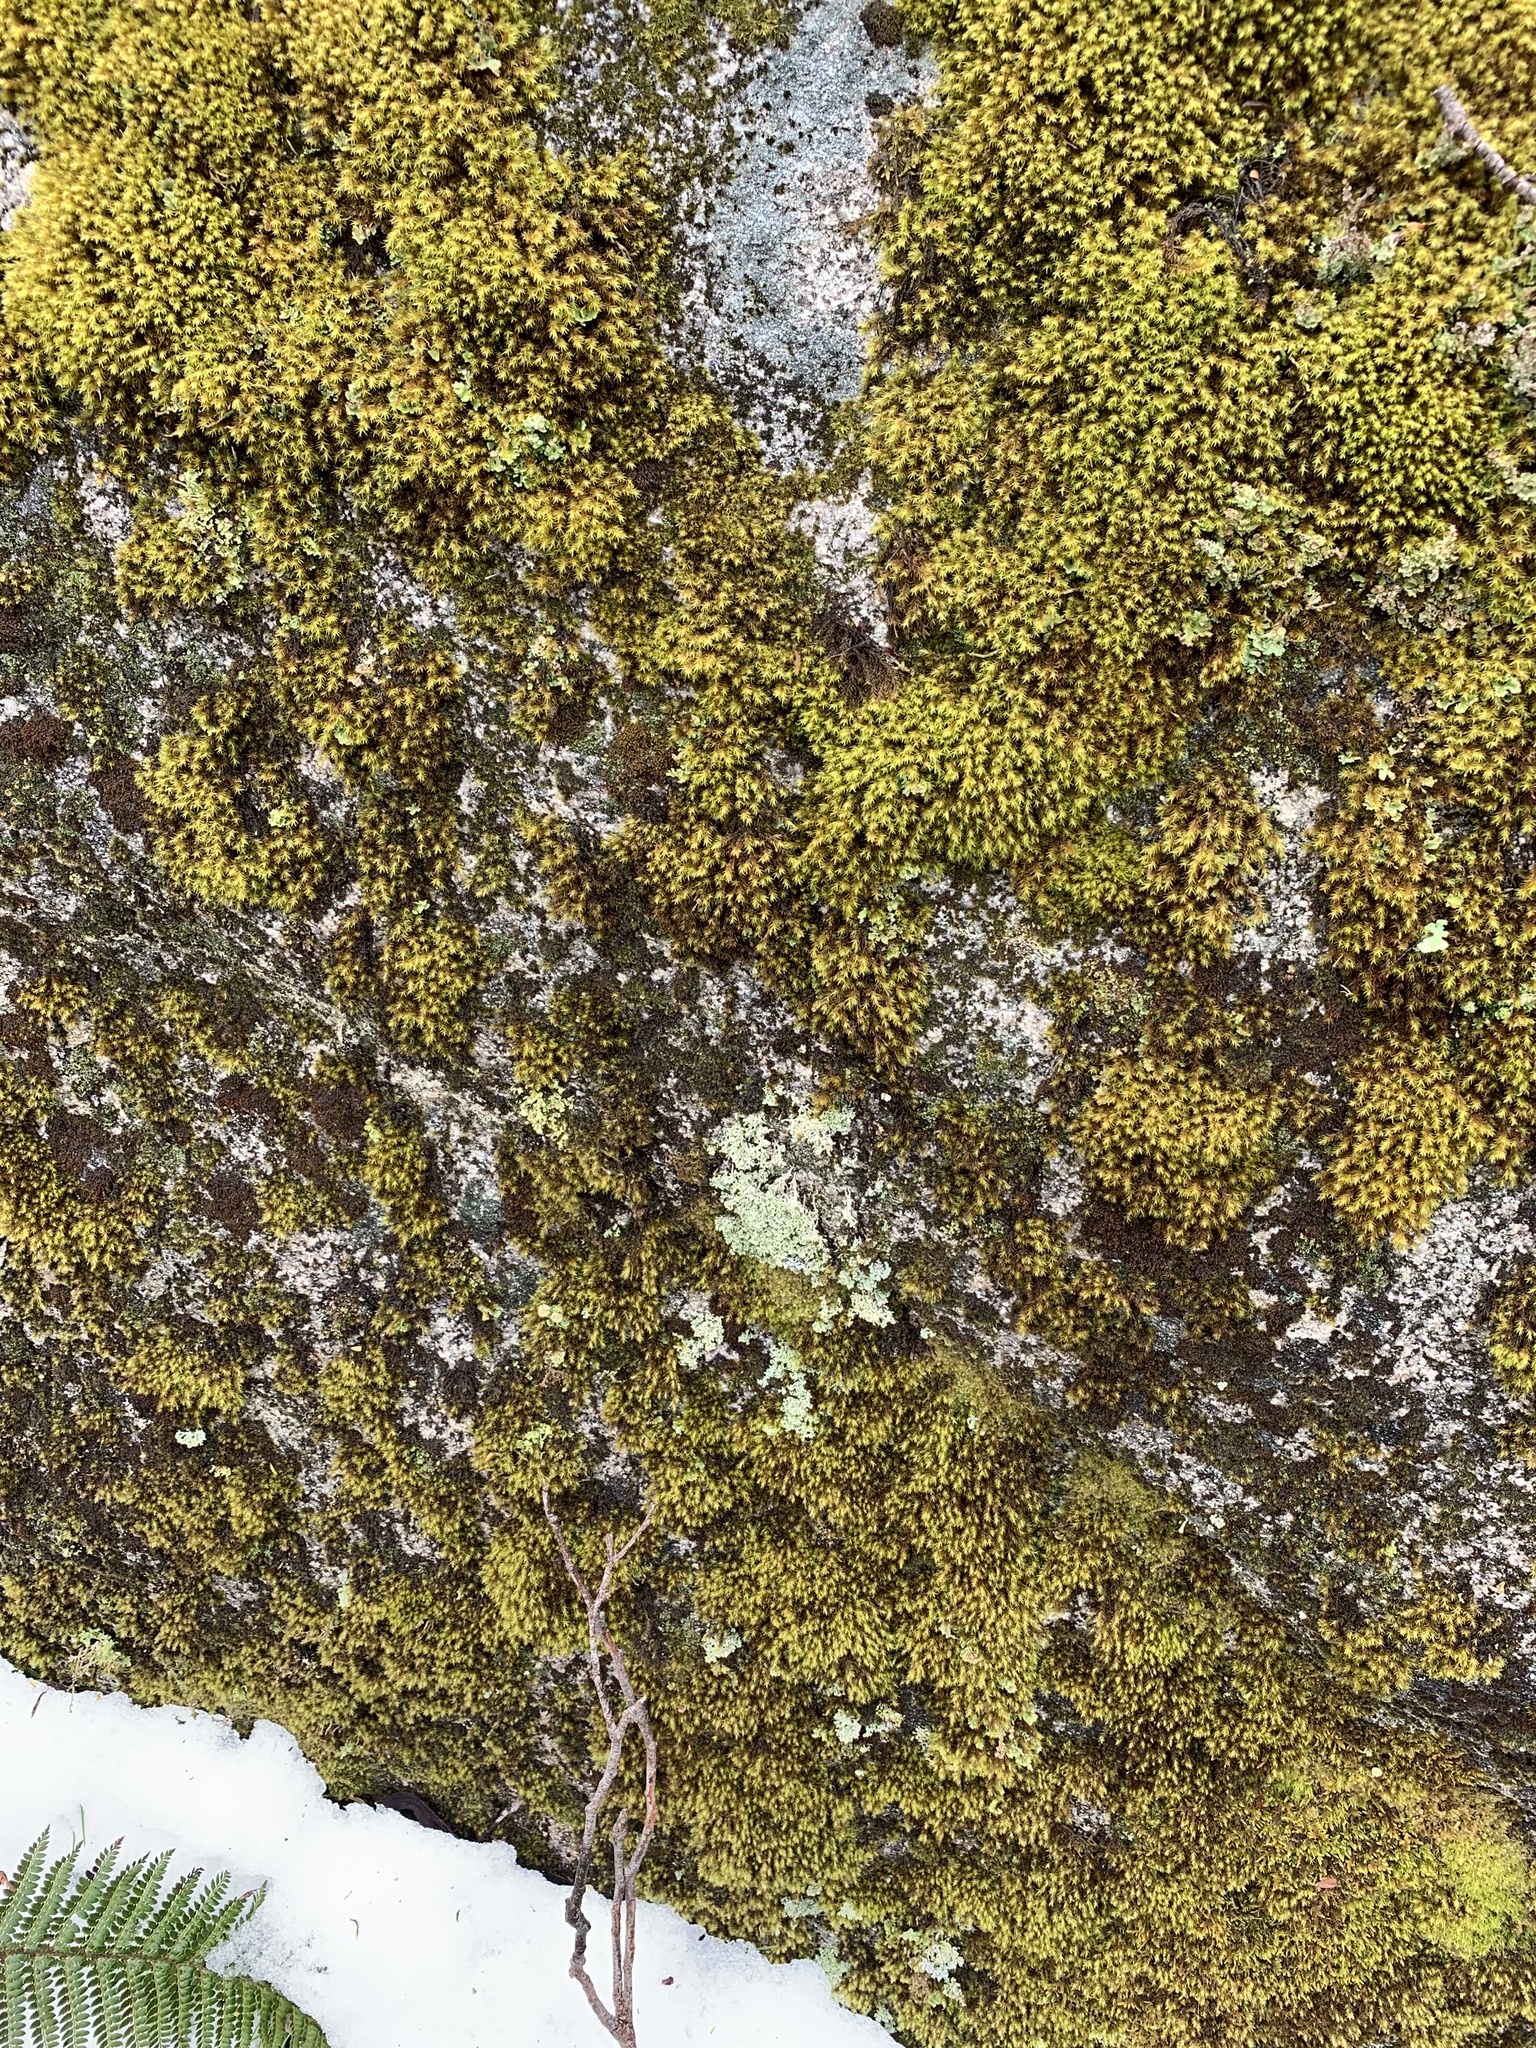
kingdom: Plantae
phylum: Bryophyta
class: Bryopsida
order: Grimmiales
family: Grimmiaceae
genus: Bucklandiella
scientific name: Bucklandiella crispula
